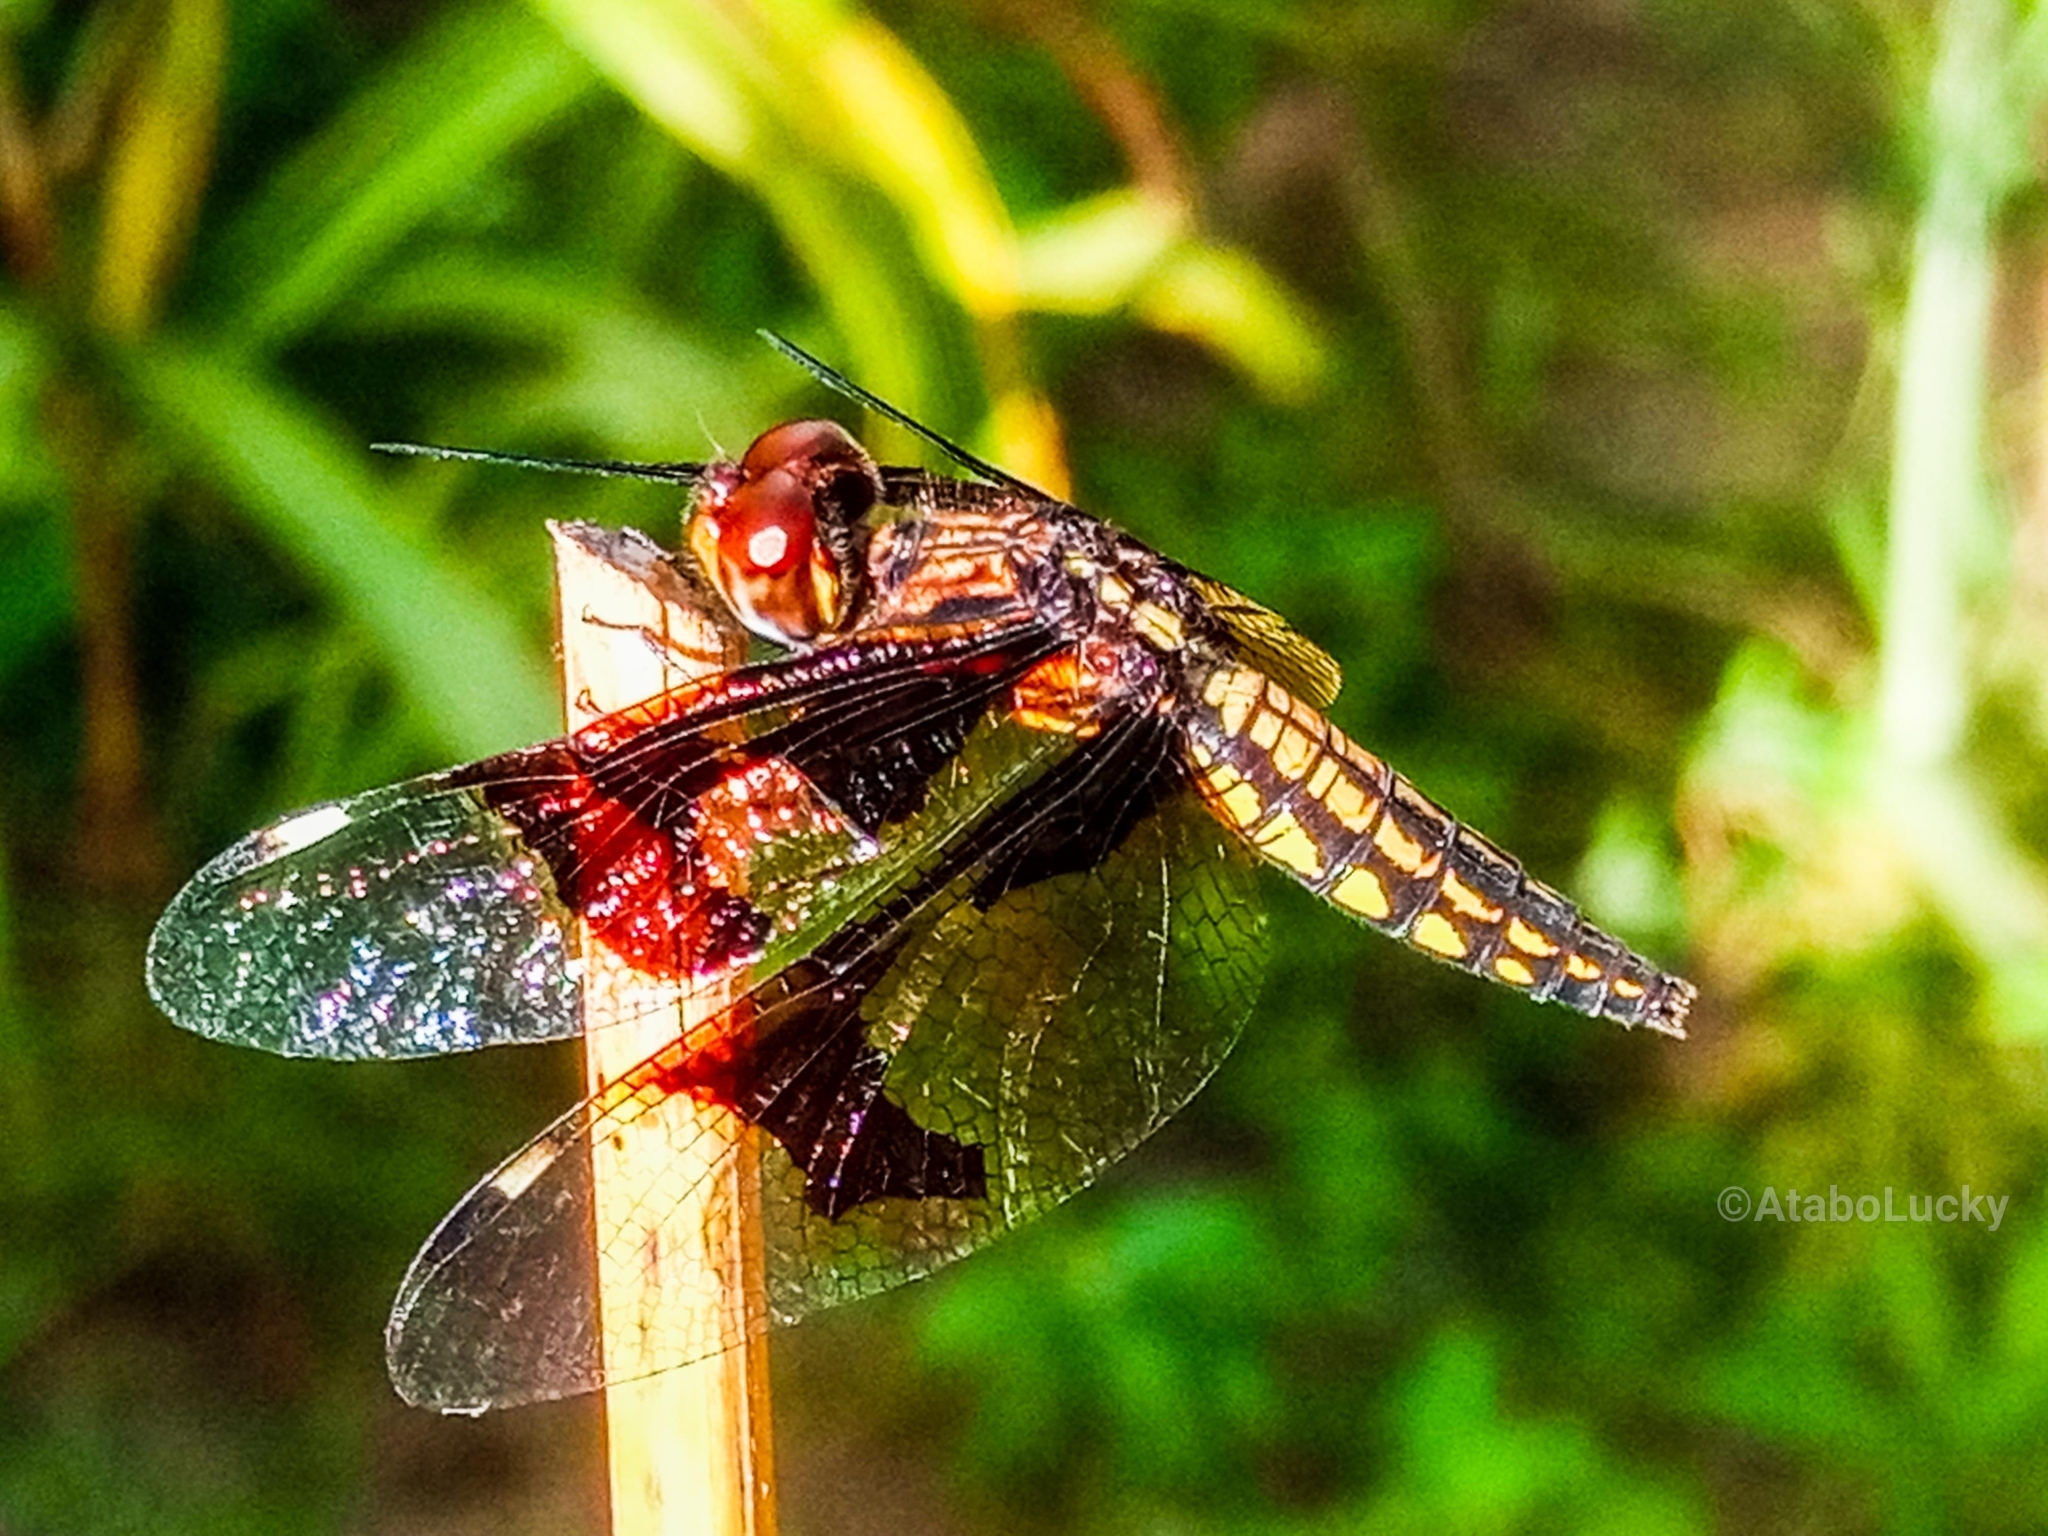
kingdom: Animalia
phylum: Arthropoda
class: Insecta
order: Odonata
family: Libellulidae
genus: Palpopleura
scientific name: Palpopleura lucia
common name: Lucia widow
